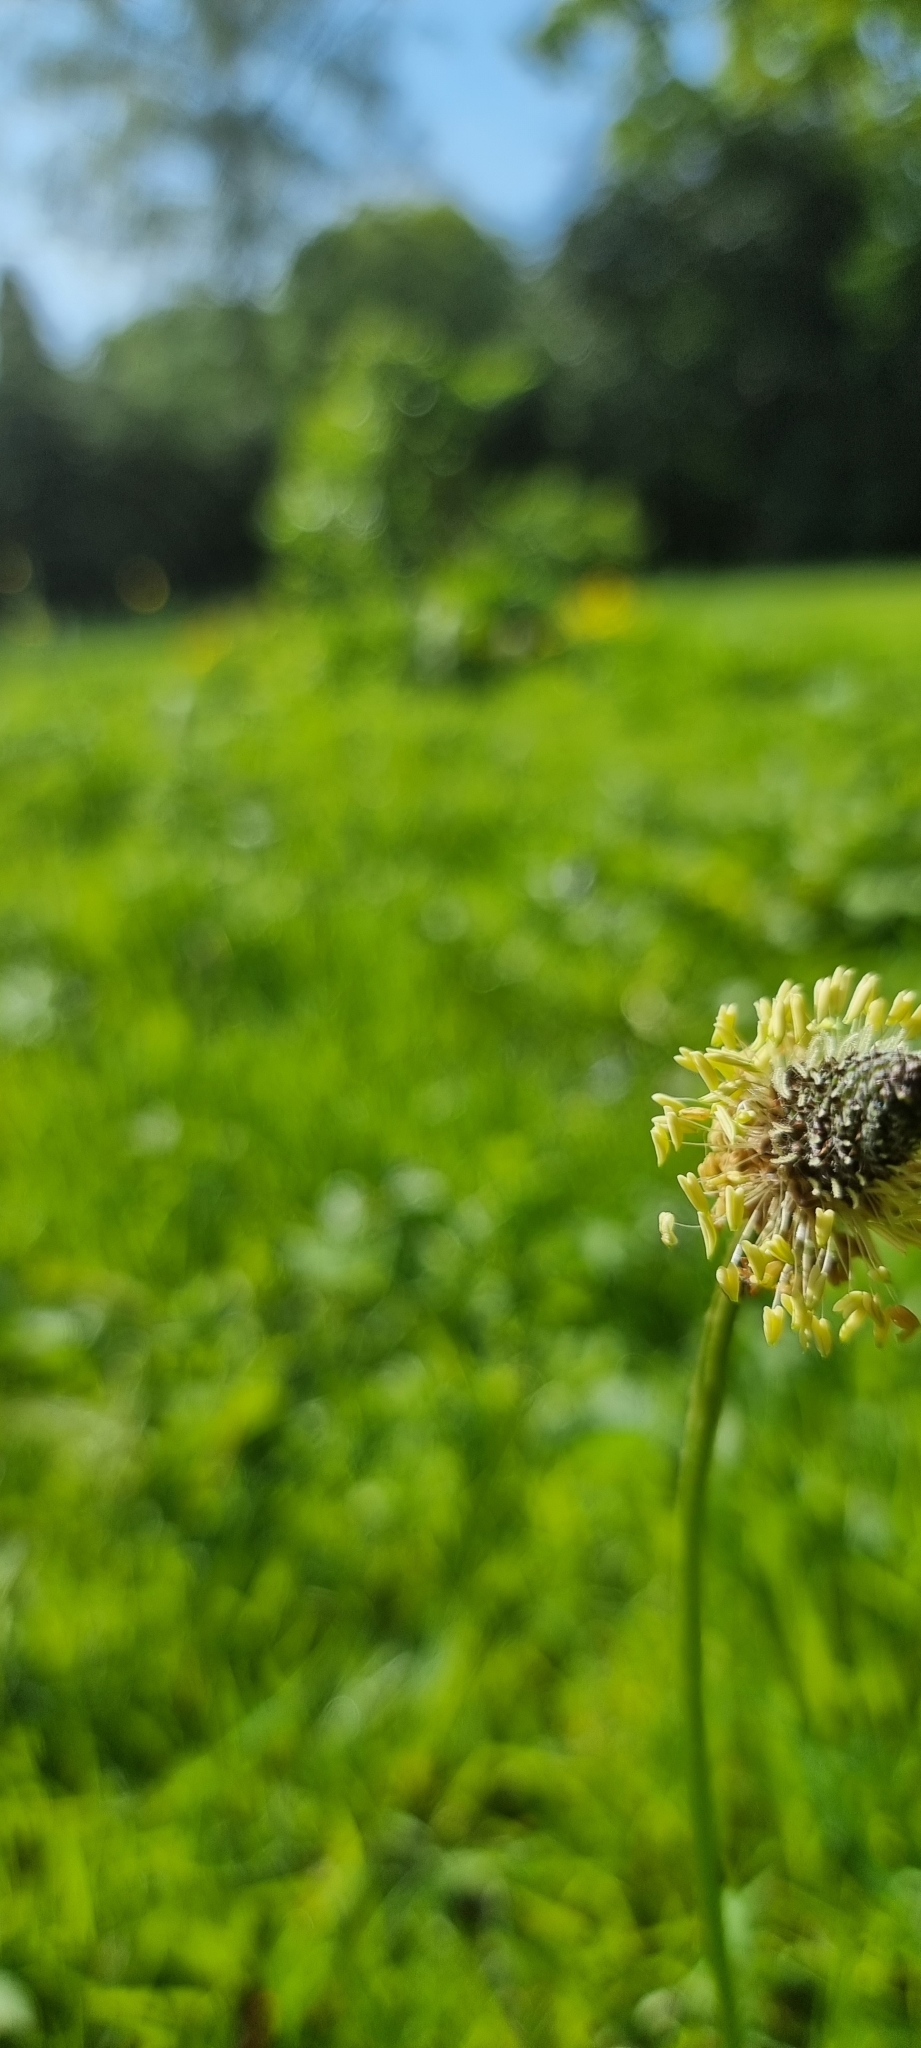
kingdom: Plantae
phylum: Tracheophyta
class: Magnoliopsida
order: Lamiales
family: Plantaginaceae
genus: Plantago
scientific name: Plantago lanceolata
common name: Ribwort plantain
